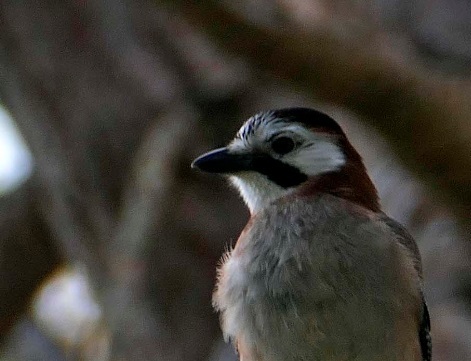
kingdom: Animalia
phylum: Chordata
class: Aves
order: Passeriformes
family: Corvidae
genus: Garrulus
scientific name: Garrulus glandarius
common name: Eurasian jay
